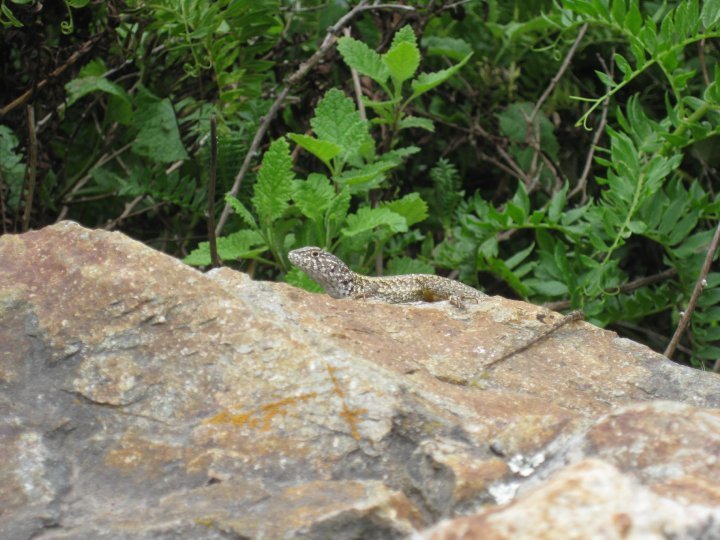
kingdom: Animalia
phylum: Chordata
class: Squamata
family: Tropiduridae
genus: Stenocercus
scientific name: Stenocercus ornatissimus
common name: Lesser ornate whorltail iguana
